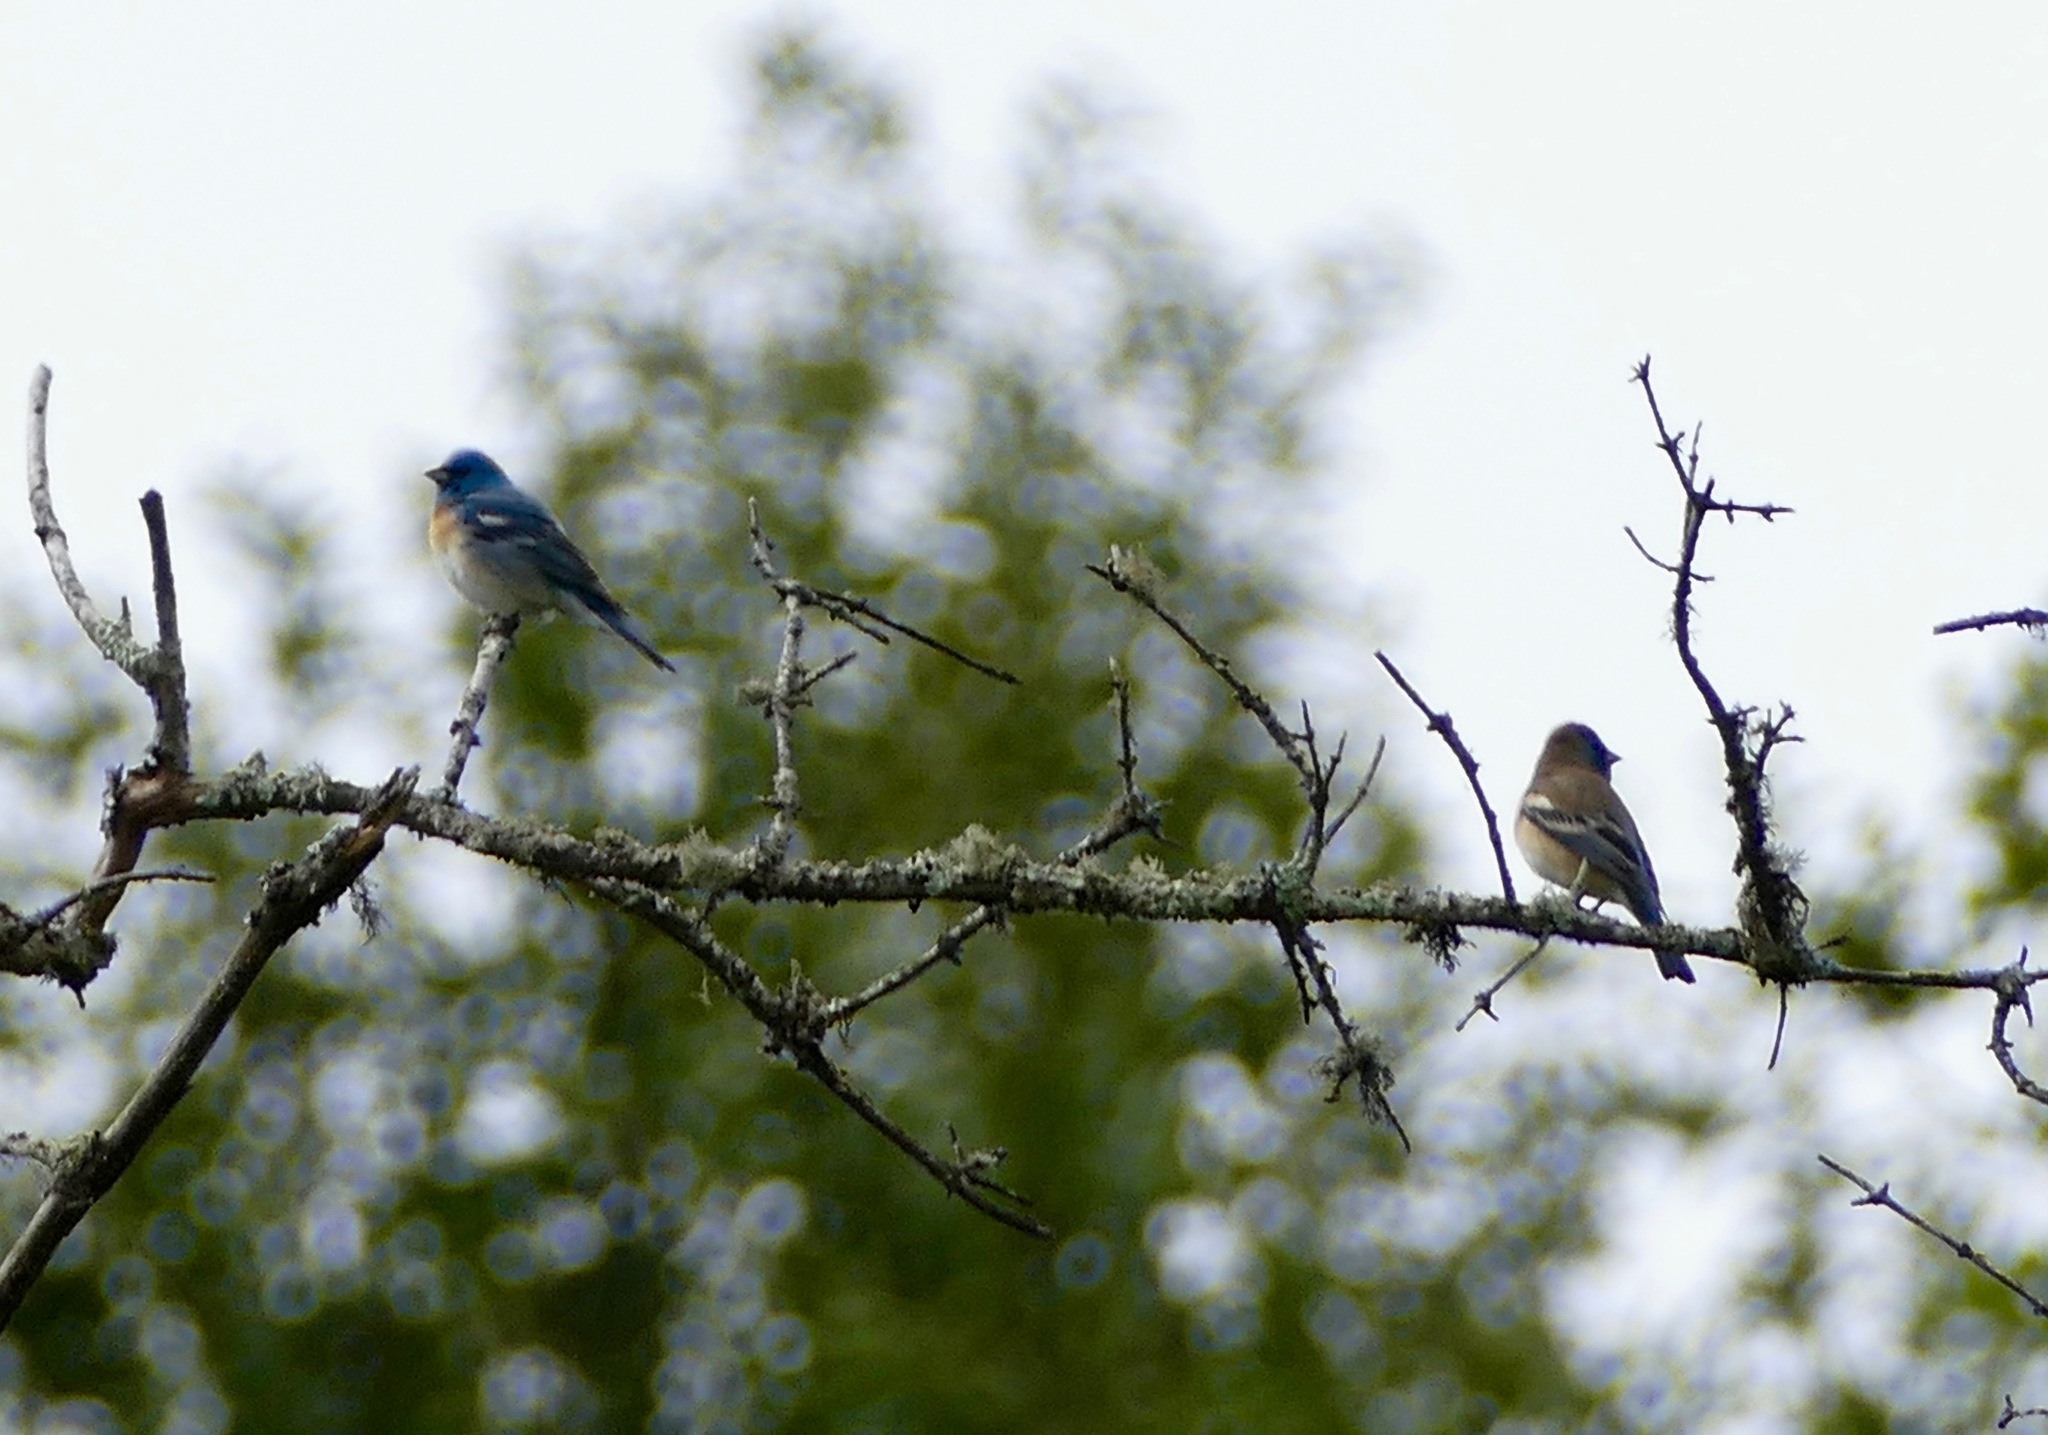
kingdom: Animalia
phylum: Chordata
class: Aves
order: Passeriformes
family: Cardinalidae
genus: Passerina
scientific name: Passerina amoena
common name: Lazuli bunting
